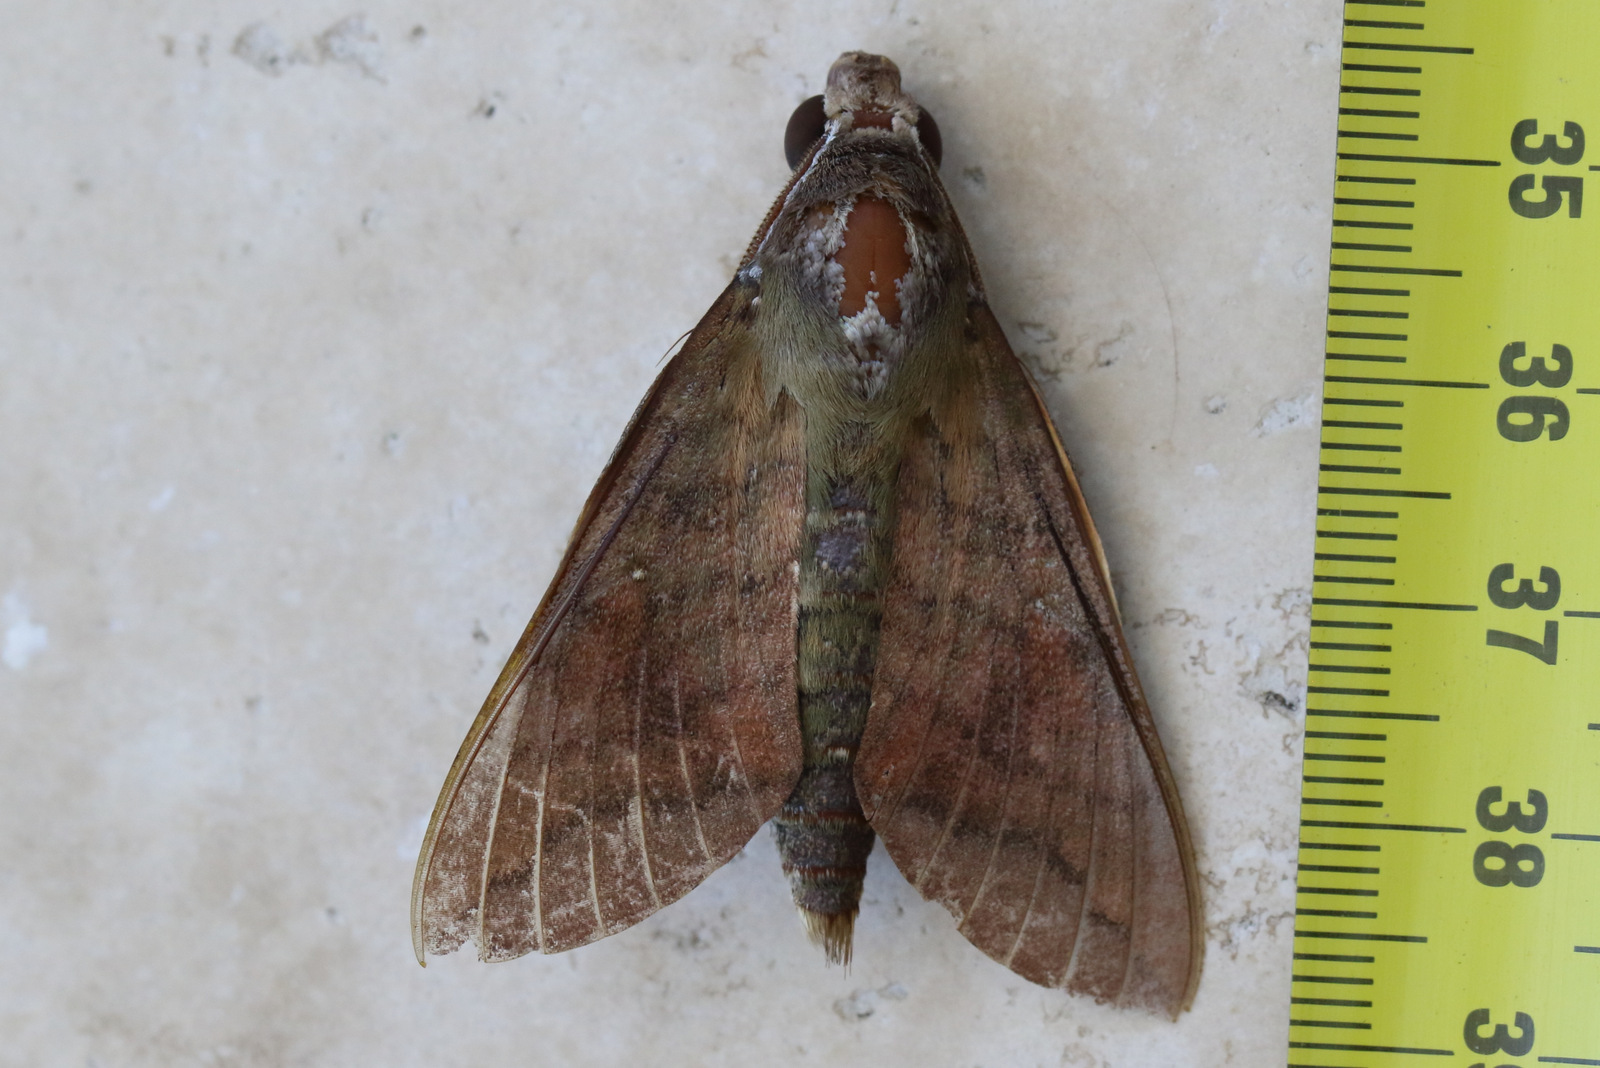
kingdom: Animalia
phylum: Arthropoda
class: Insecta
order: Lepidoptera
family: Sphingidae
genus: Nephele
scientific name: Nephele subvaria
